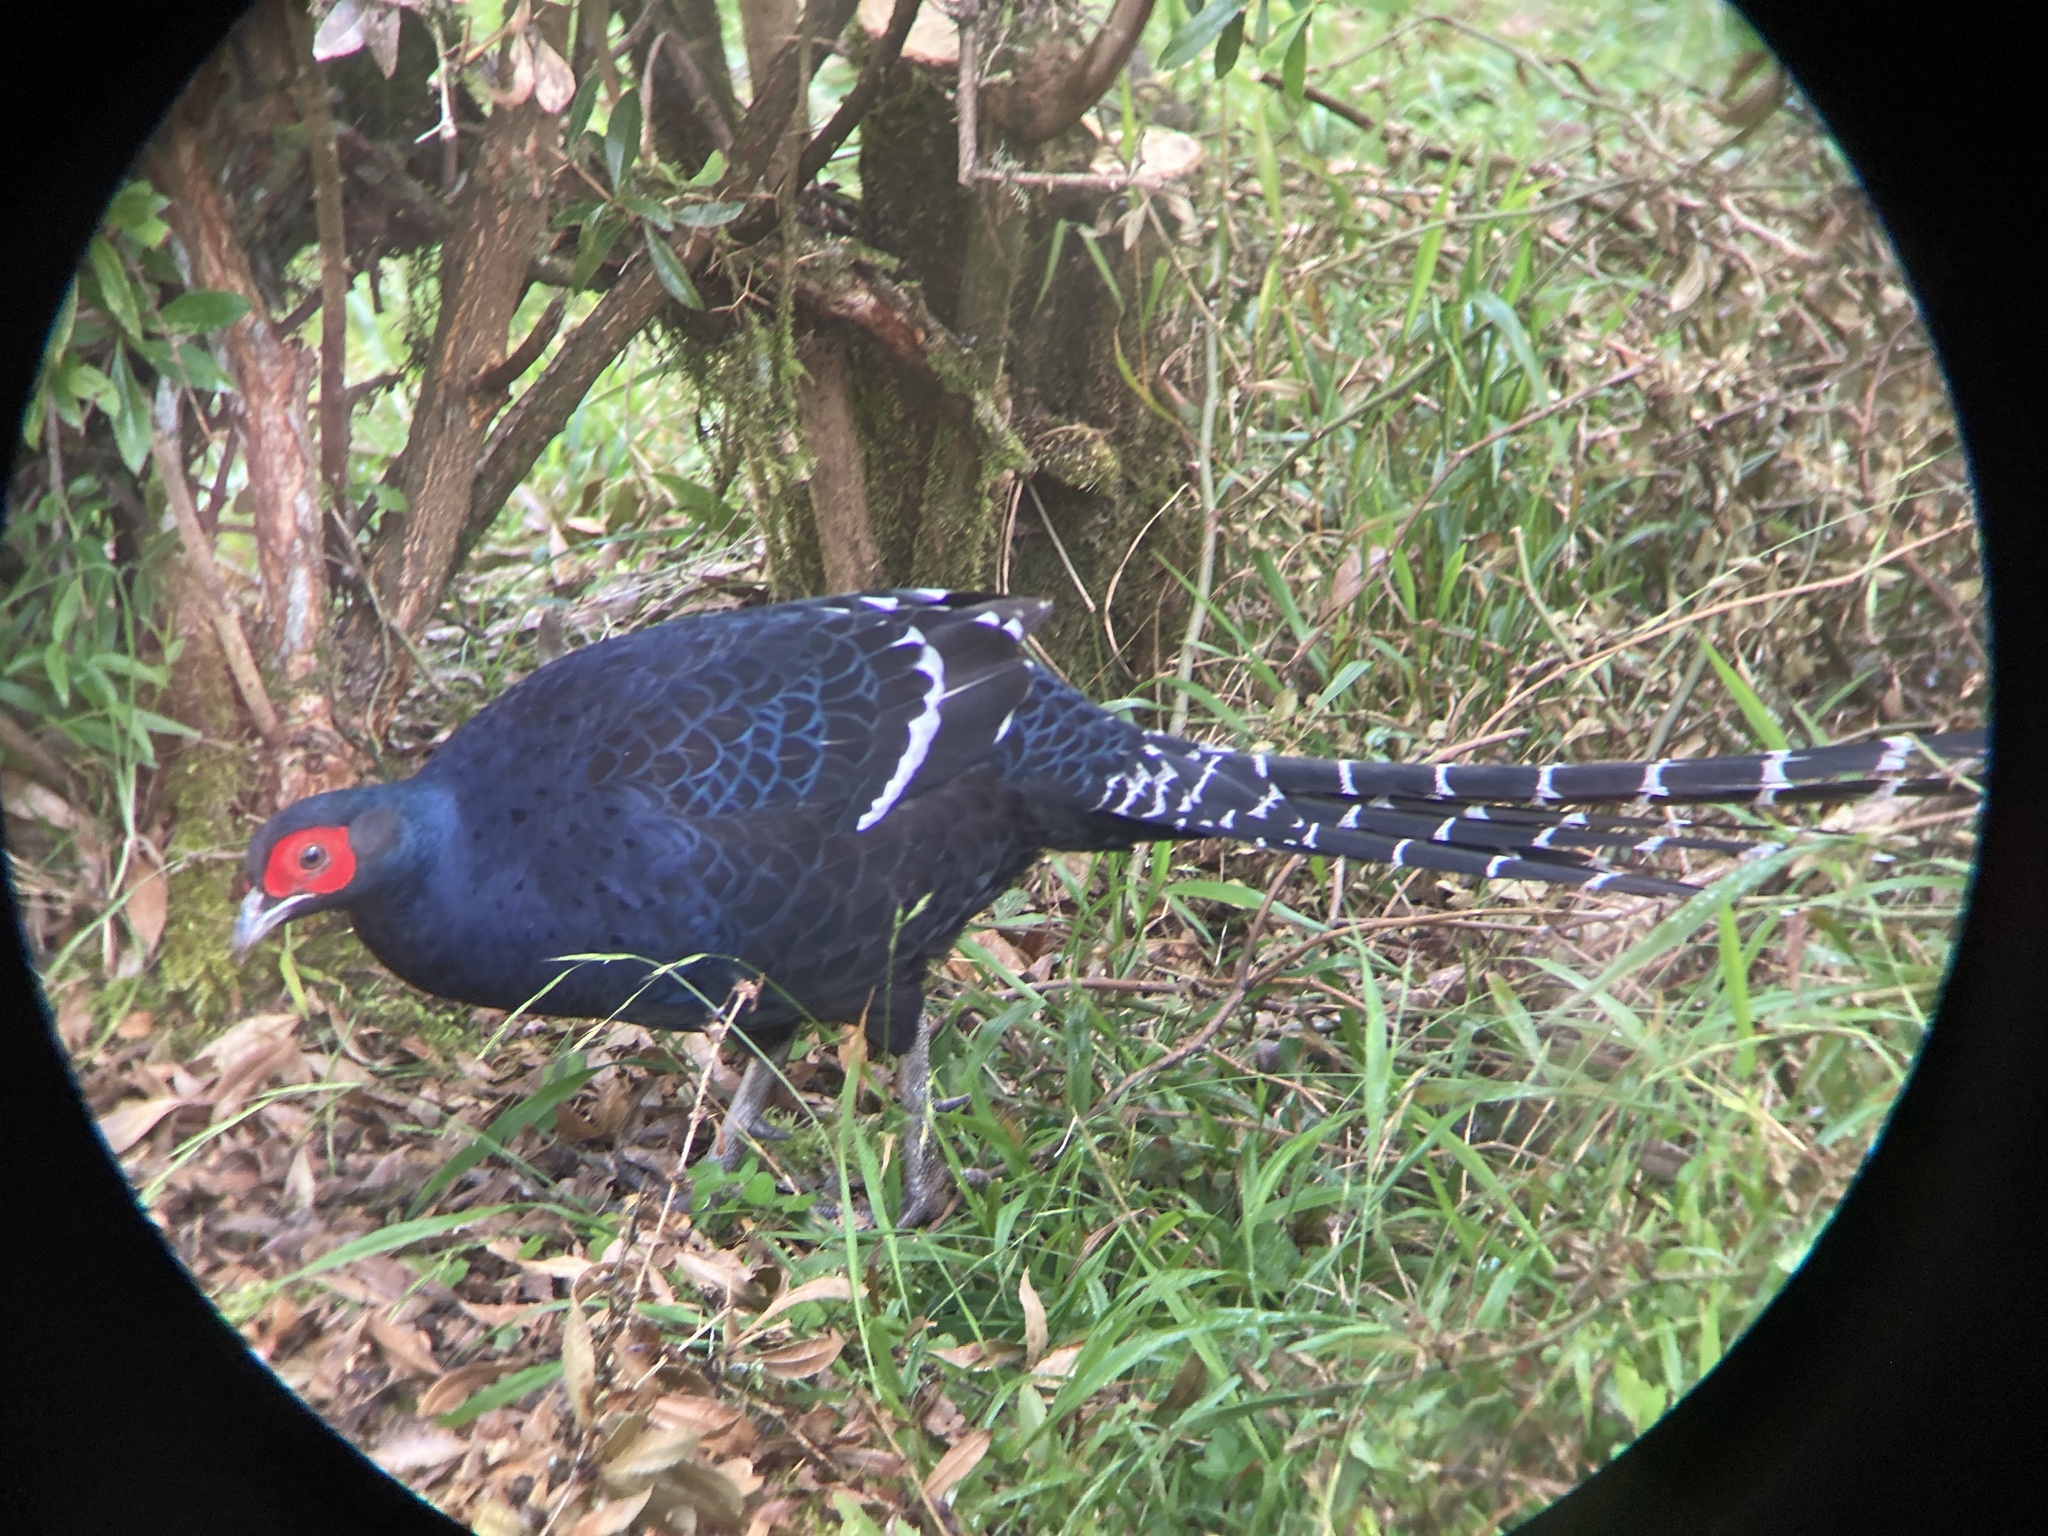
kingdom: Animalia
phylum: Chordata
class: Aves
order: Galliformes
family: Phasianidae
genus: Syrmaticus
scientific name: Syrmaticus mikado
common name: Mikado pheasant
